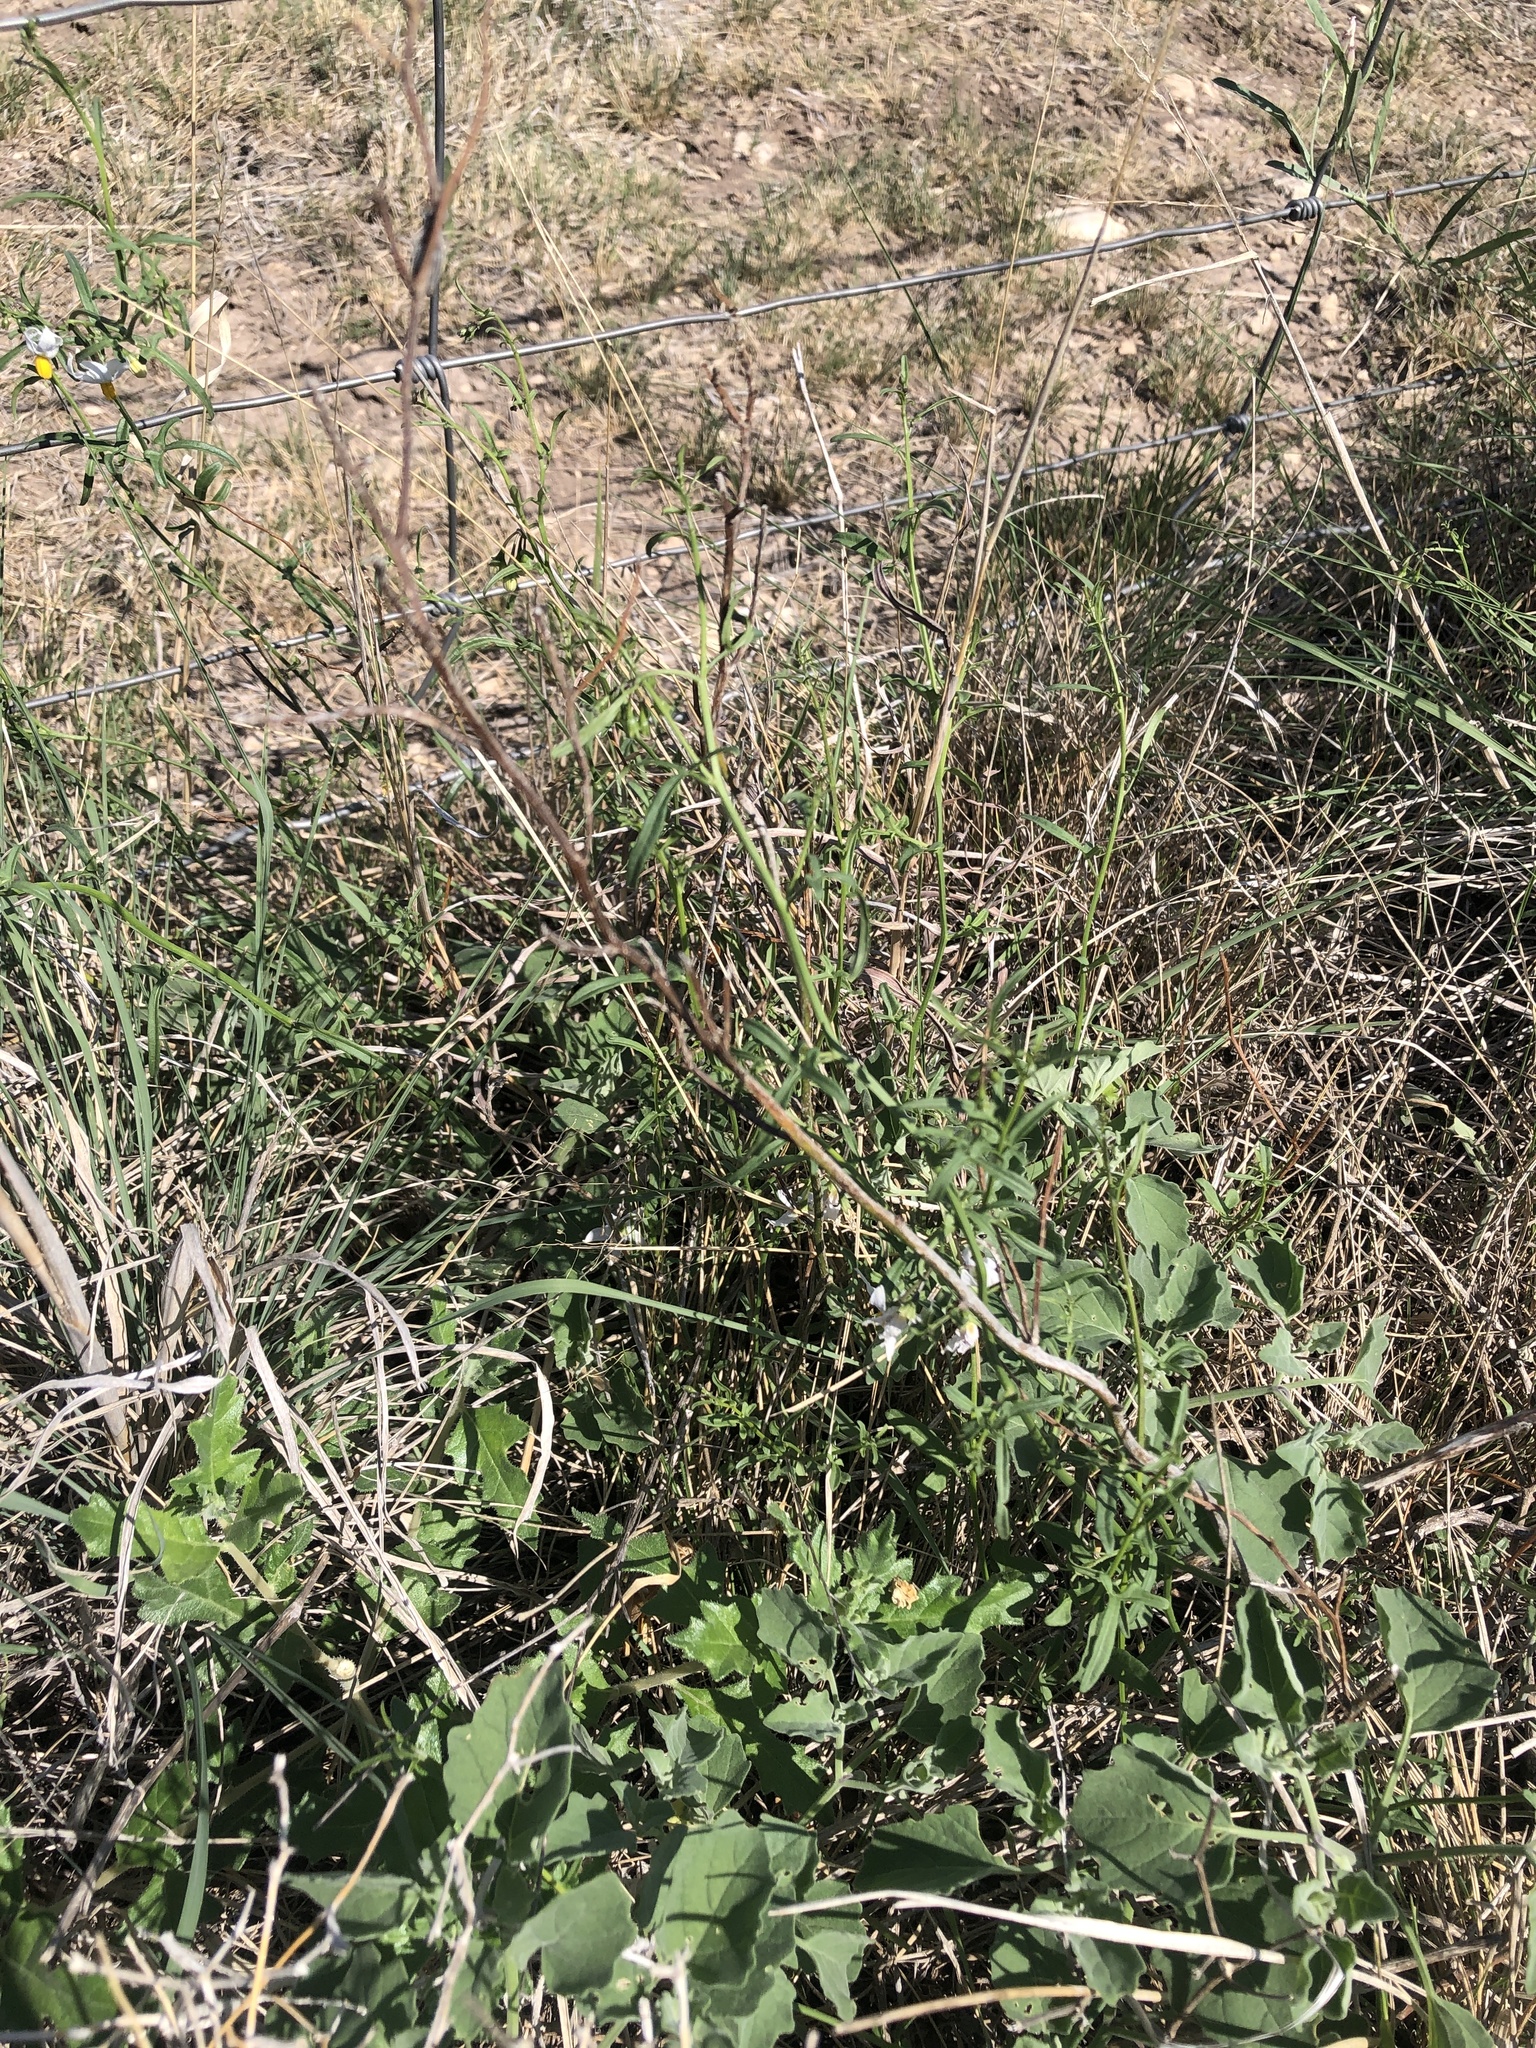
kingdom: Plantae
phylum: Tracheophyta
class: Magnoliopsida
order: Solanales
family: Solanaceae
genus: Solanum
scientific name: Solanum triquetrum
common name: Texas nightshade
